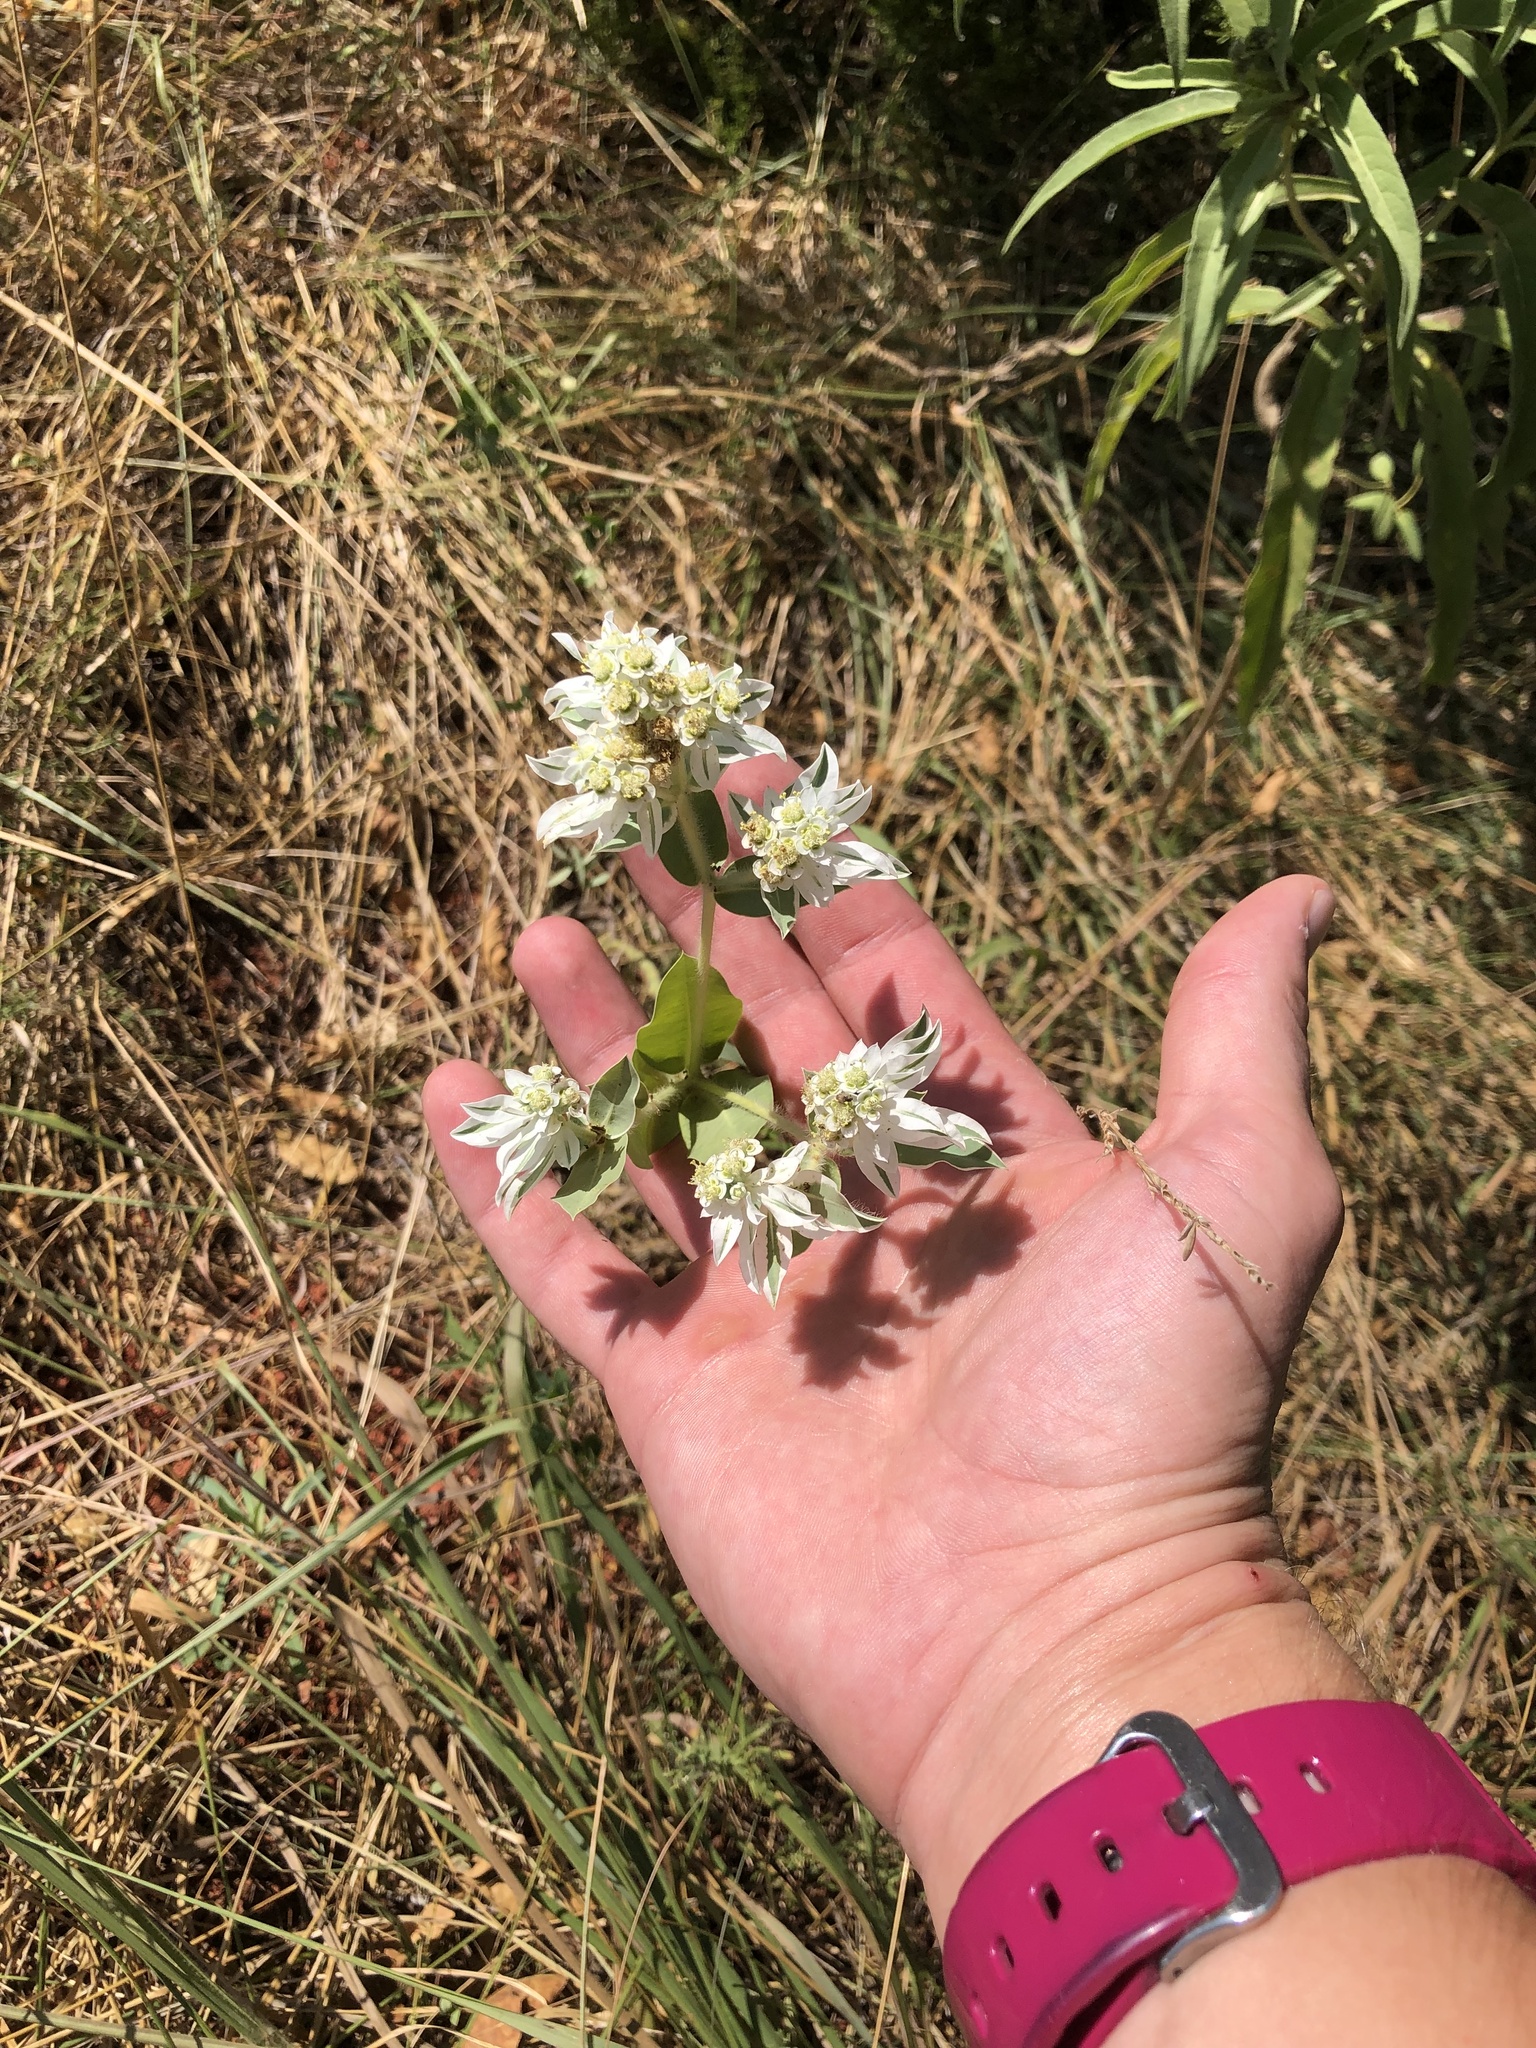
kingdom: Plantae
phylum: Tracheophyta
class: Magnoliopsida
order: Malpighiales
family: Euphorbiaceae
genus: Euphorbia
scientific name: Euphorbia marginata
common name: Ghostweed
